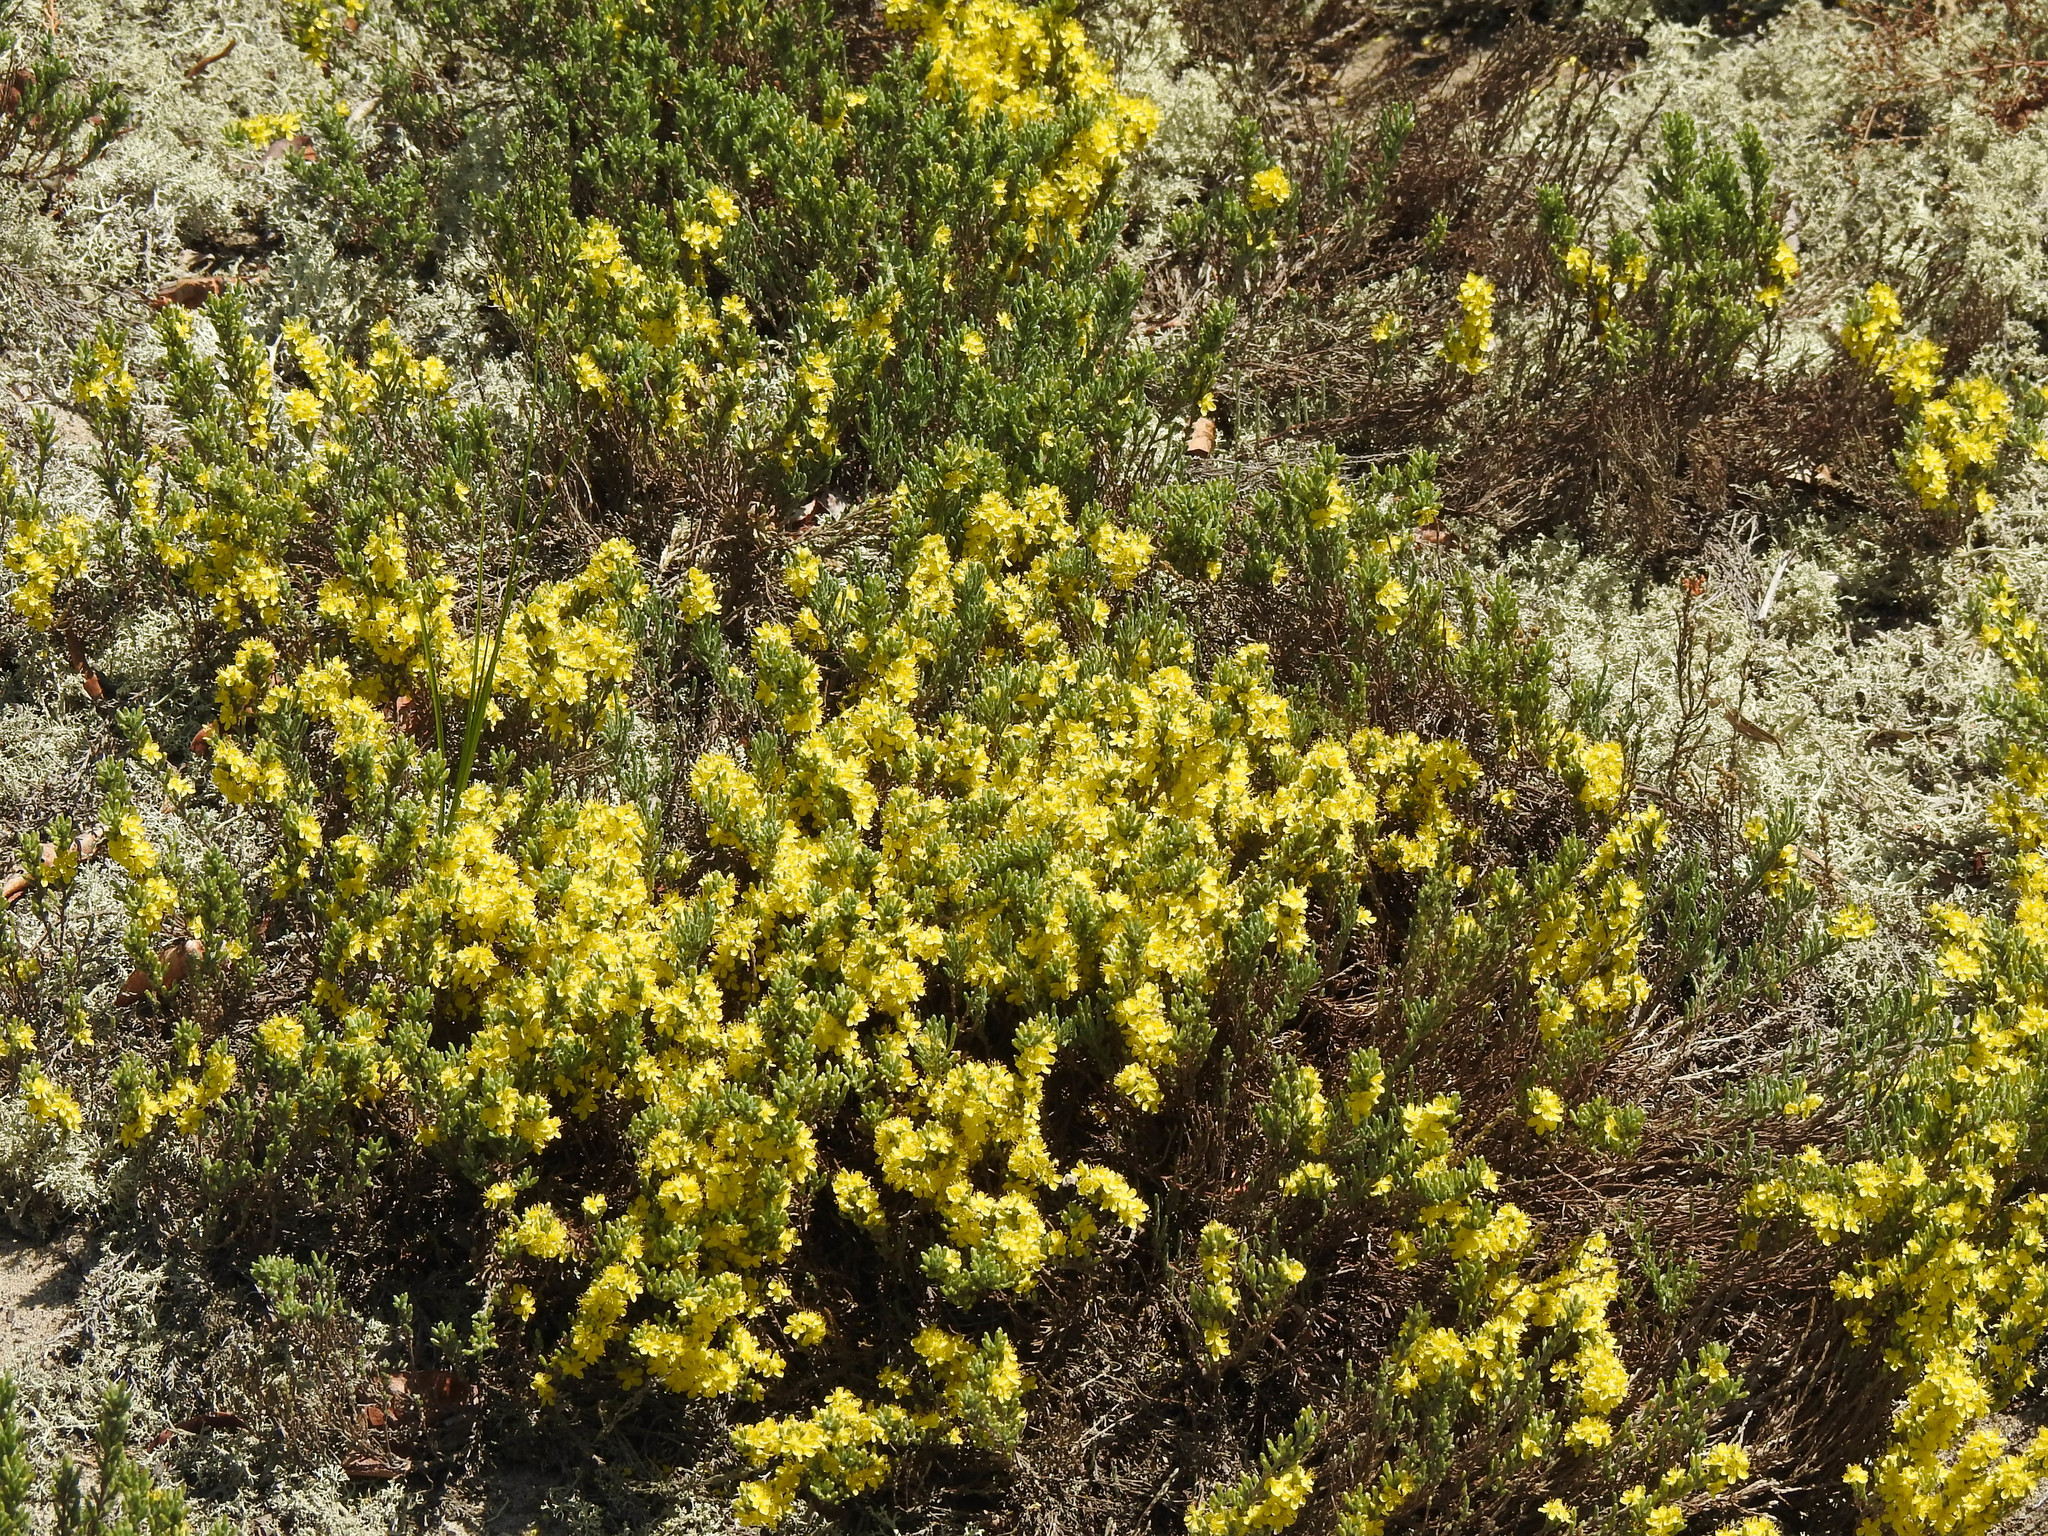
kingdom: Plantae
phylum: Tracheophyta
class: Magnoliopsida
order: Malvales
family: Cistaceae
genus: Hudsonia
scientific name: Hudsonia tomentosa
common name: Beach-heath
